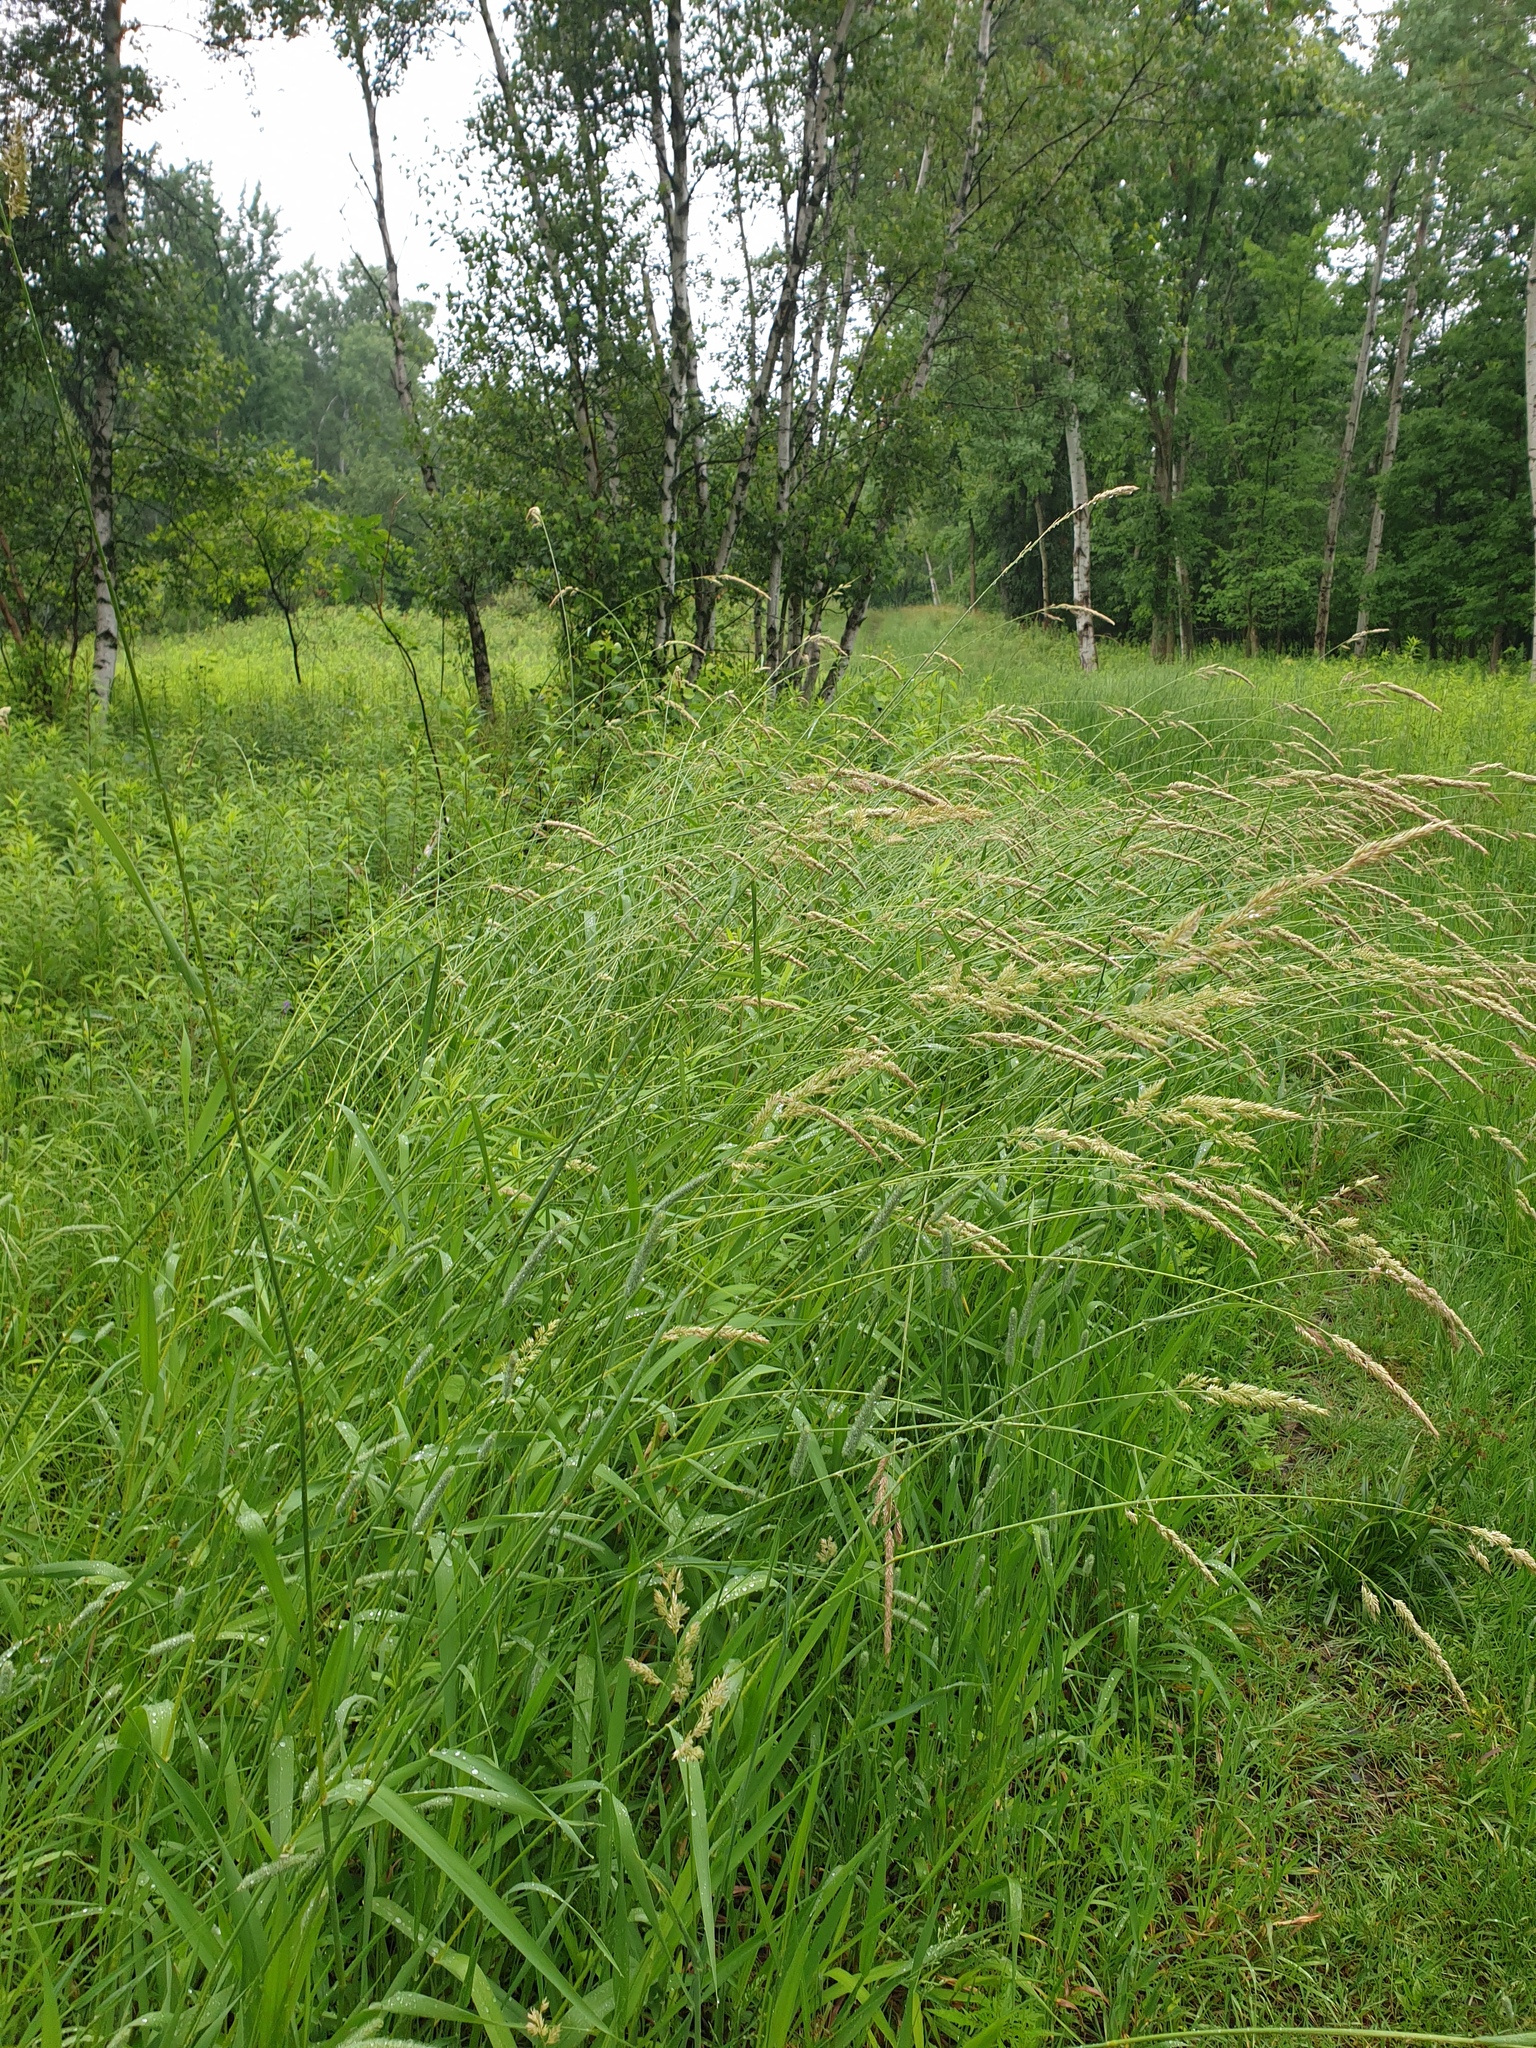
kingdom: Plantae
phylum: Tracheophyta
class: Liliopsida
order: Poales
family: Poaceae
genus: Phalaris
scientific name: Phalaris arundinacea
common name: Reed canary-grass
